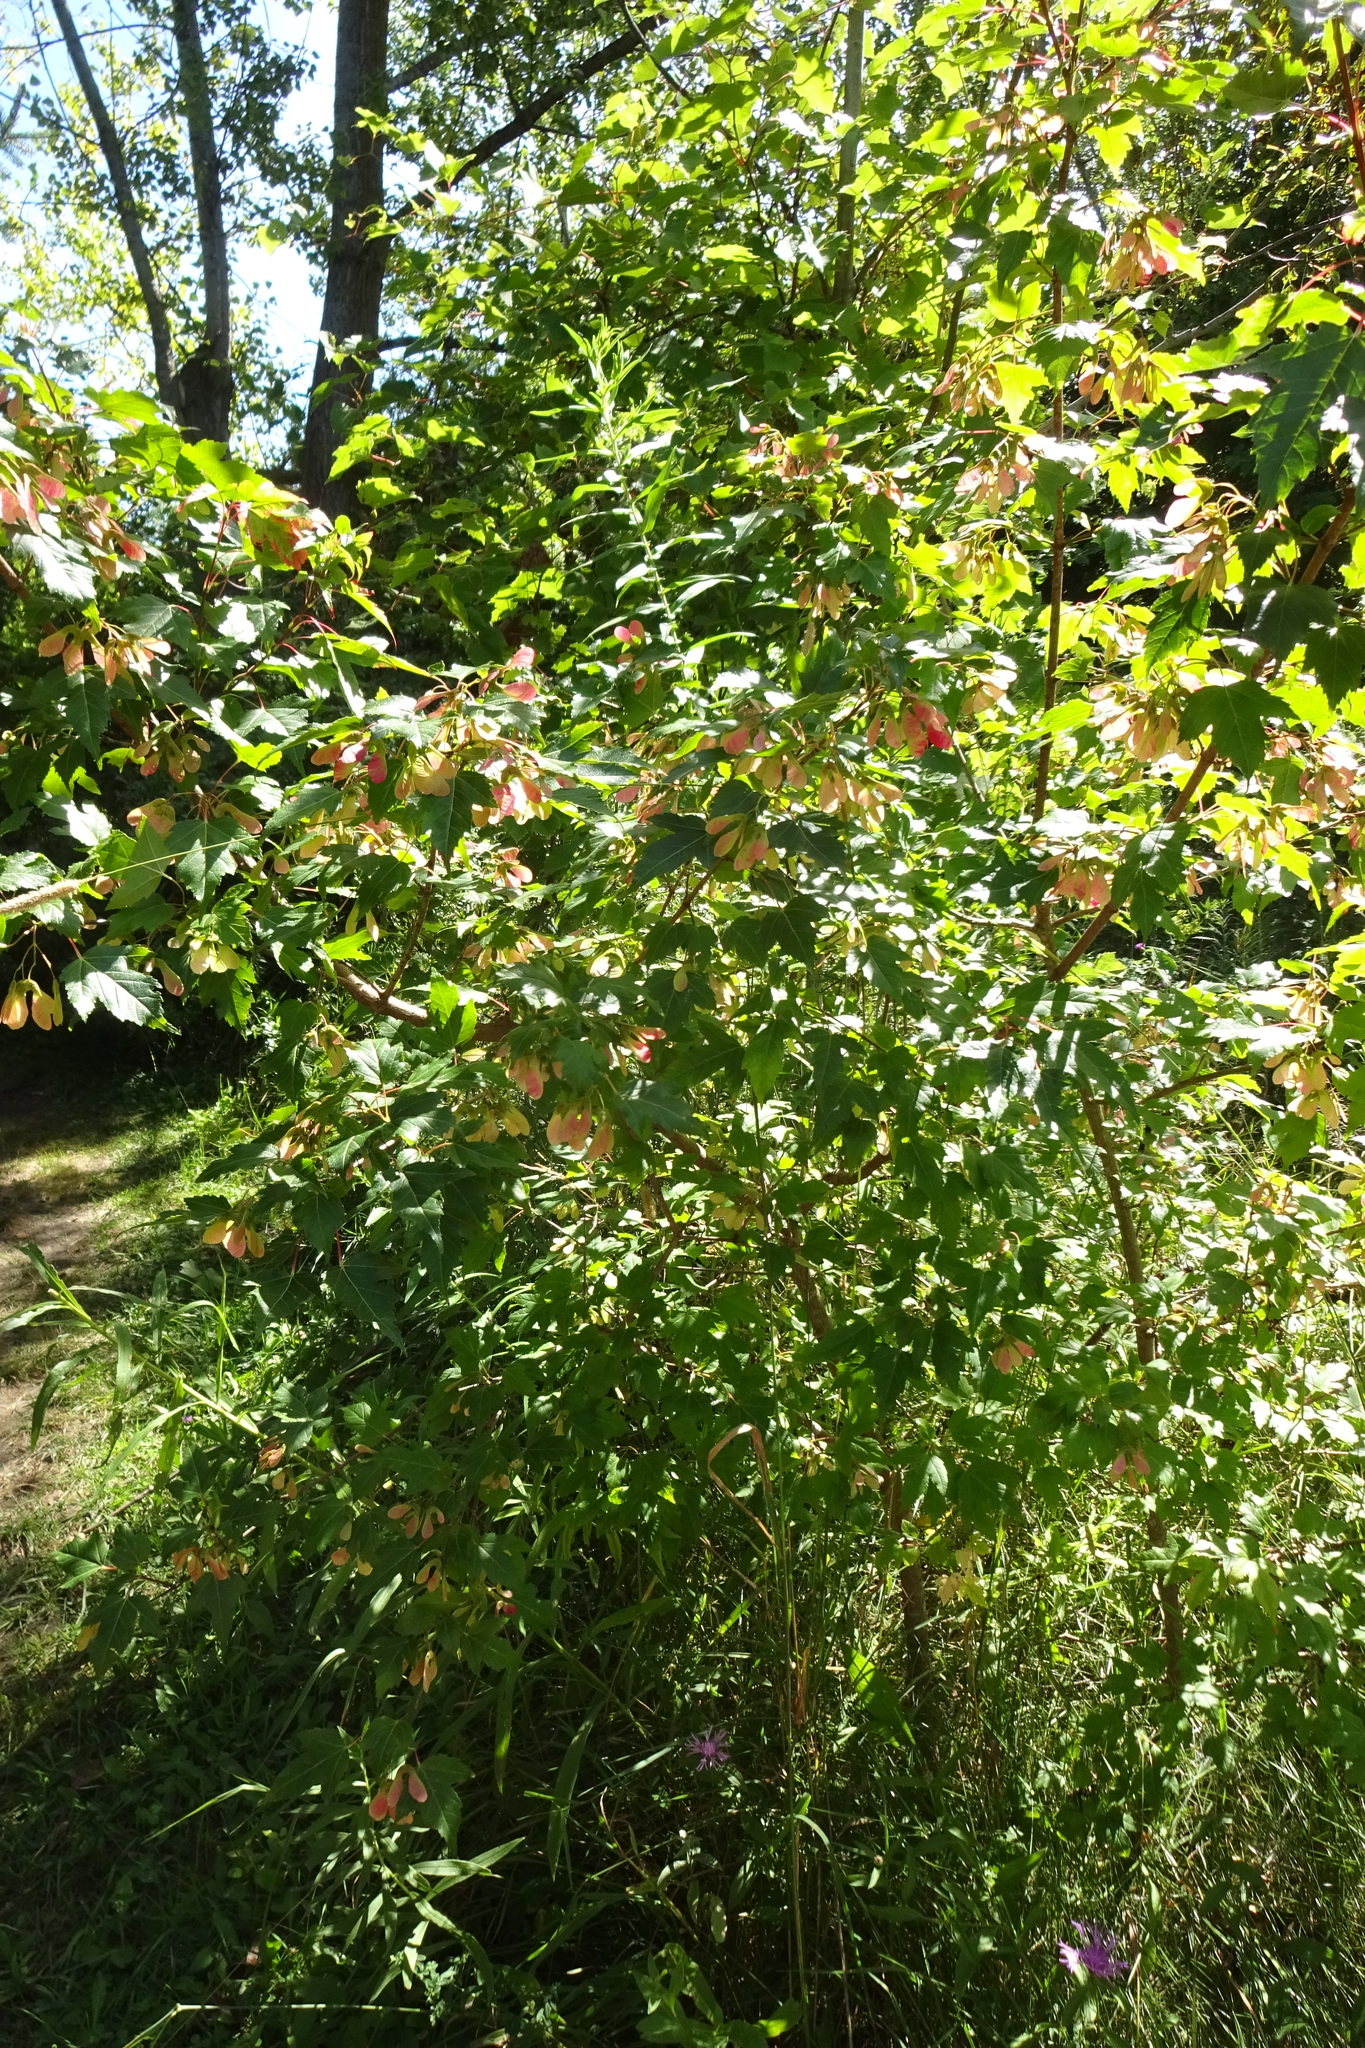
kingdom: Plantae
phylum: Tracheophyta
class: Magnoliopsida
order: Sapindales
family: Sapindaceae
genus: Acer
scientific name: Acer tataricum
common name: Tartar maple
